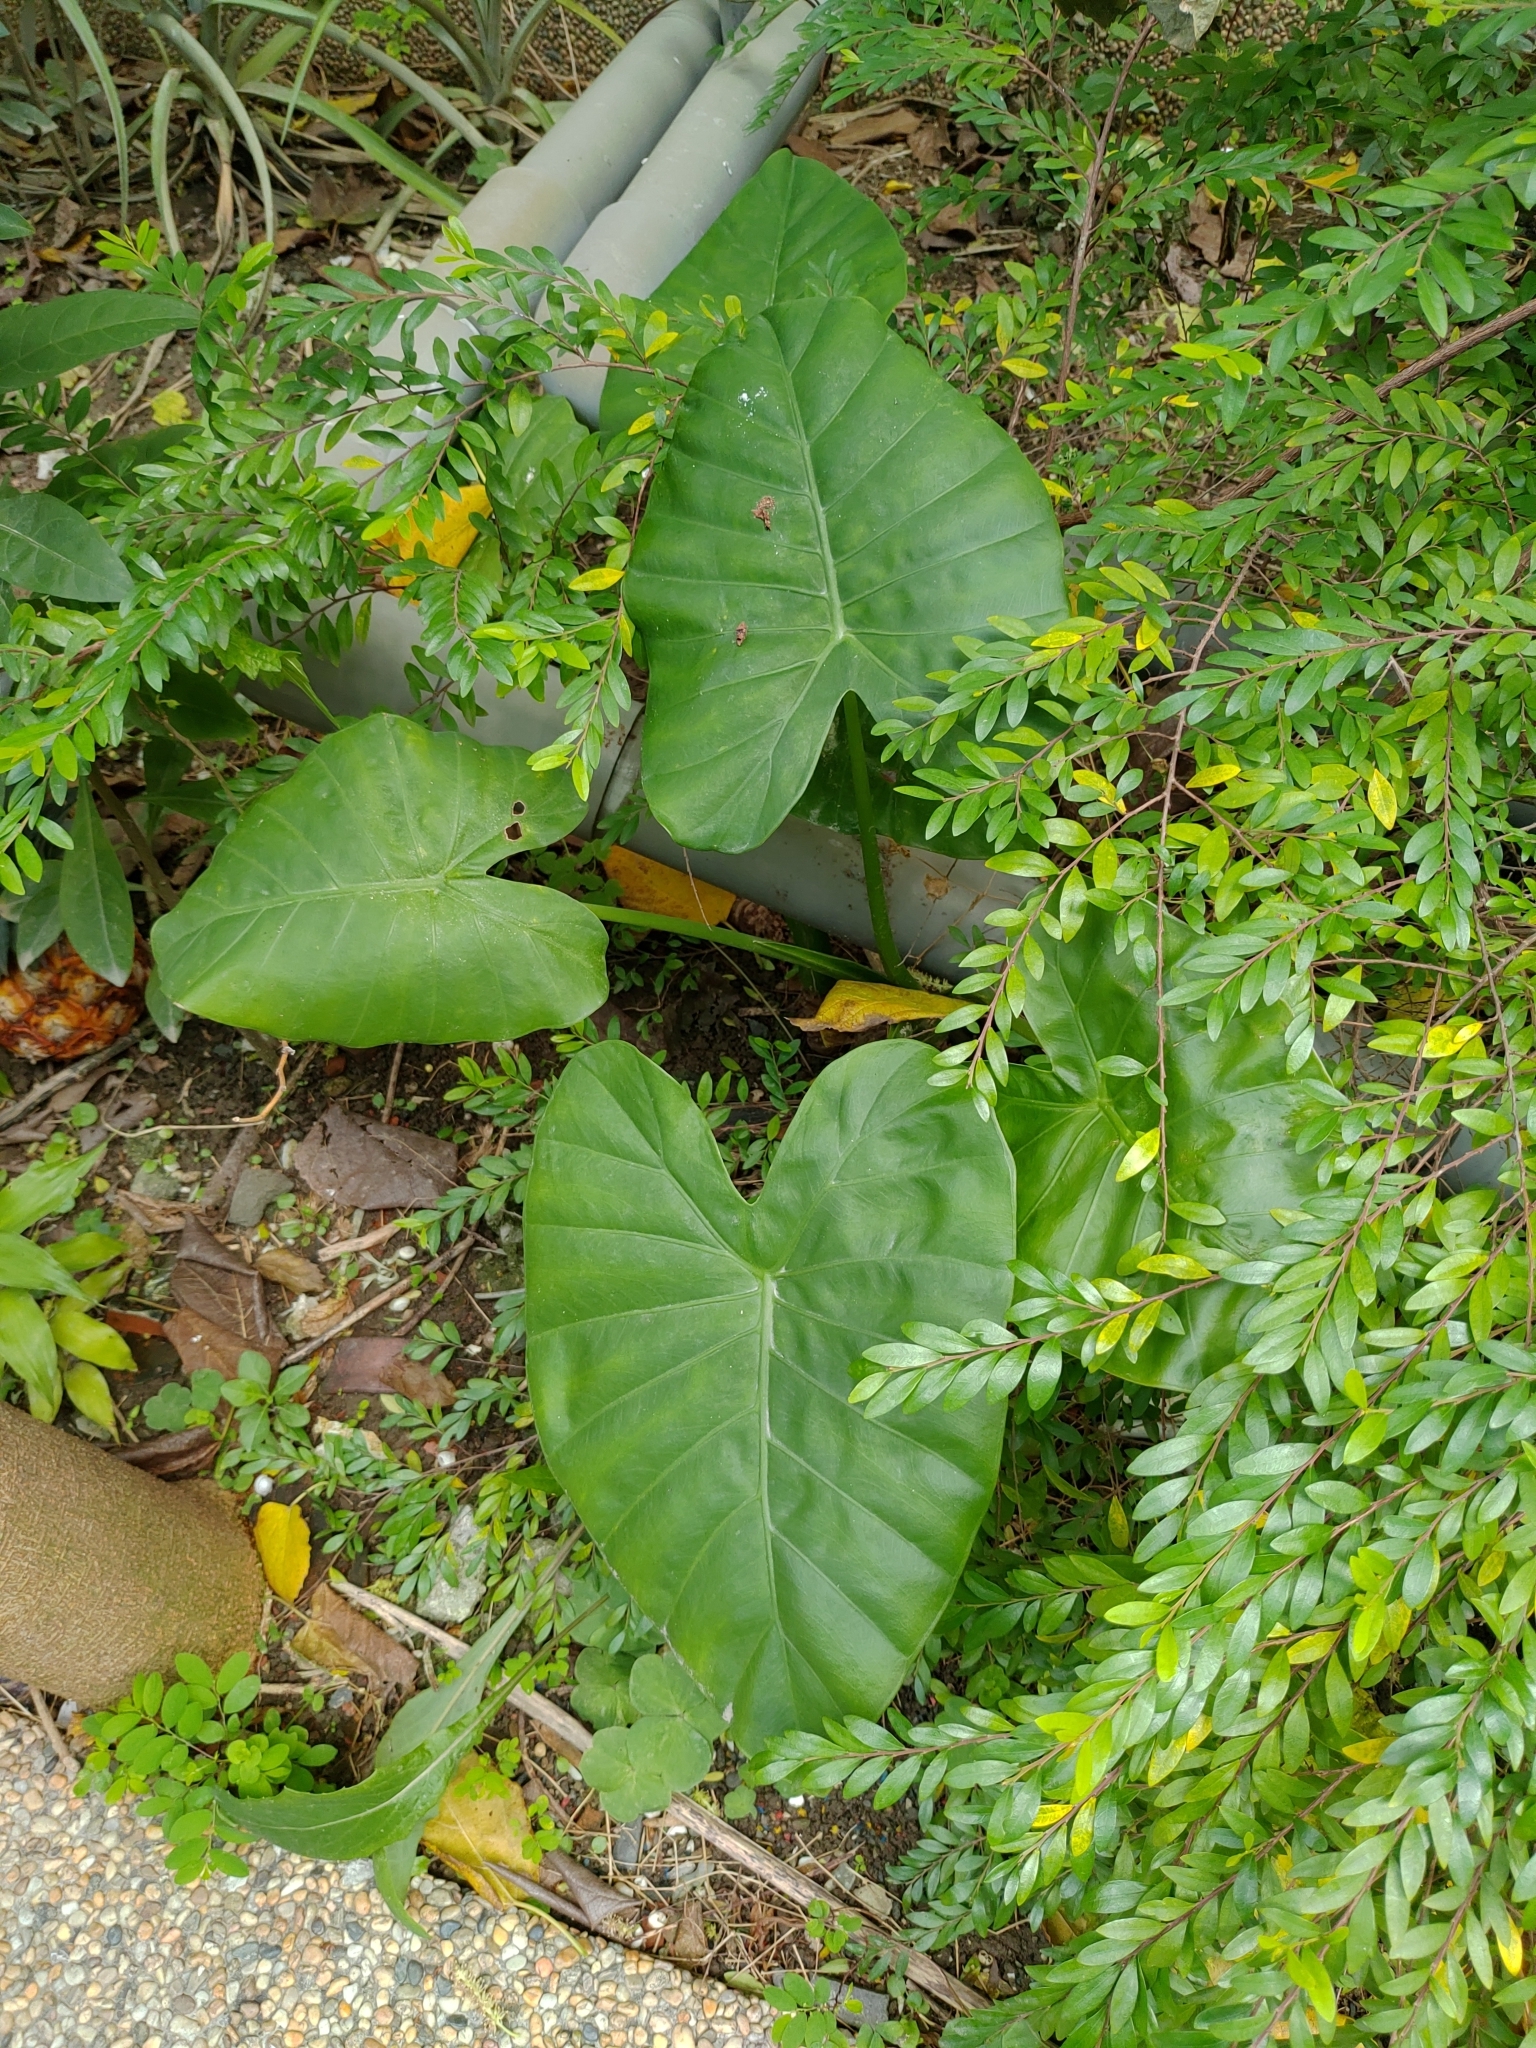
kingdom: Plantae
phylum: Tracheophyta
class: Liliopsida
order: Alismatales
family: Araceae
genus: Alocasia
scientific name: Alocasia odora
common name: Asian taro
